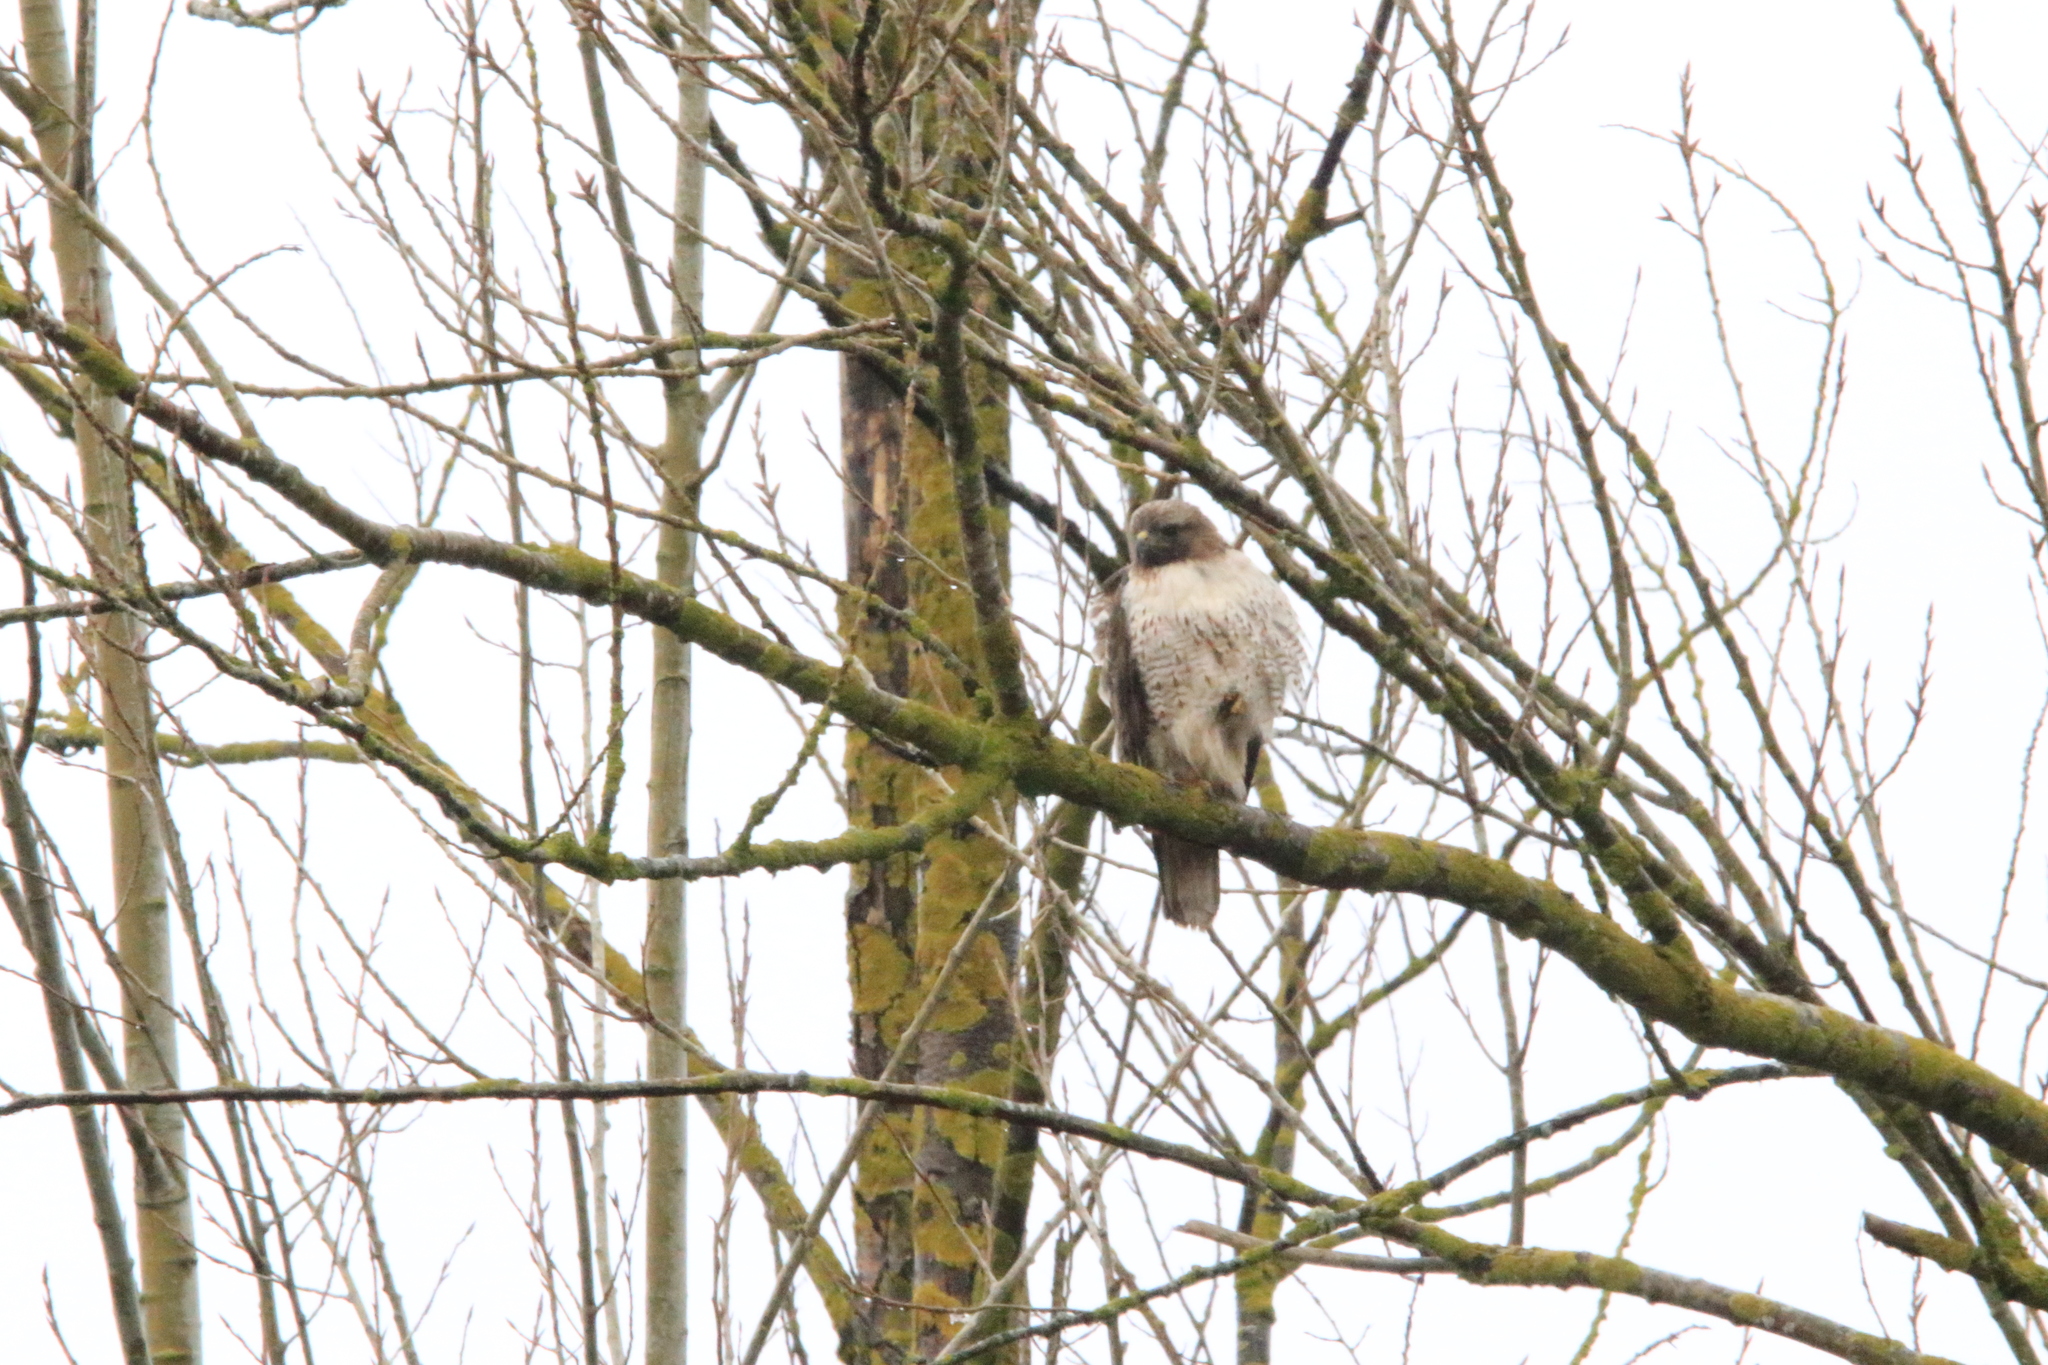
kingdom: Animalia
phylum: Chordata
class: Aves
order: Accipitriformes
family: Accipitridae
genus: Buteo
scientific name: Buteo jamaicensis
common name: Red-tailed hawk
